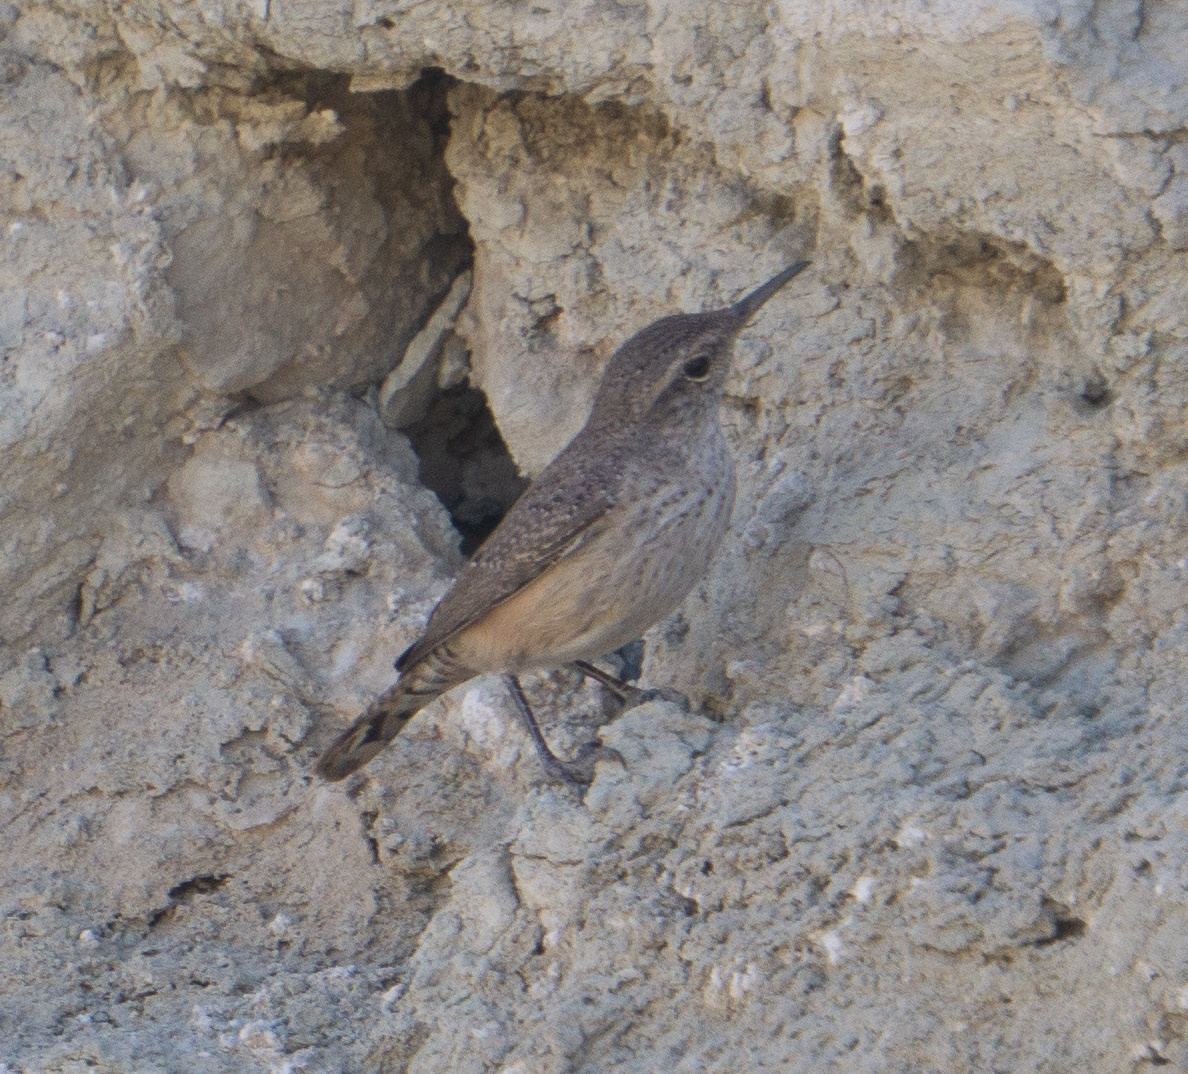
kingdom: Animalia
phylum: Chordata
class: Aves
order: Passeriformes
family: Troglodytidae
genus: Salpinctes
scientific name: Salpinctes obsoletus
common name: Rock wren
